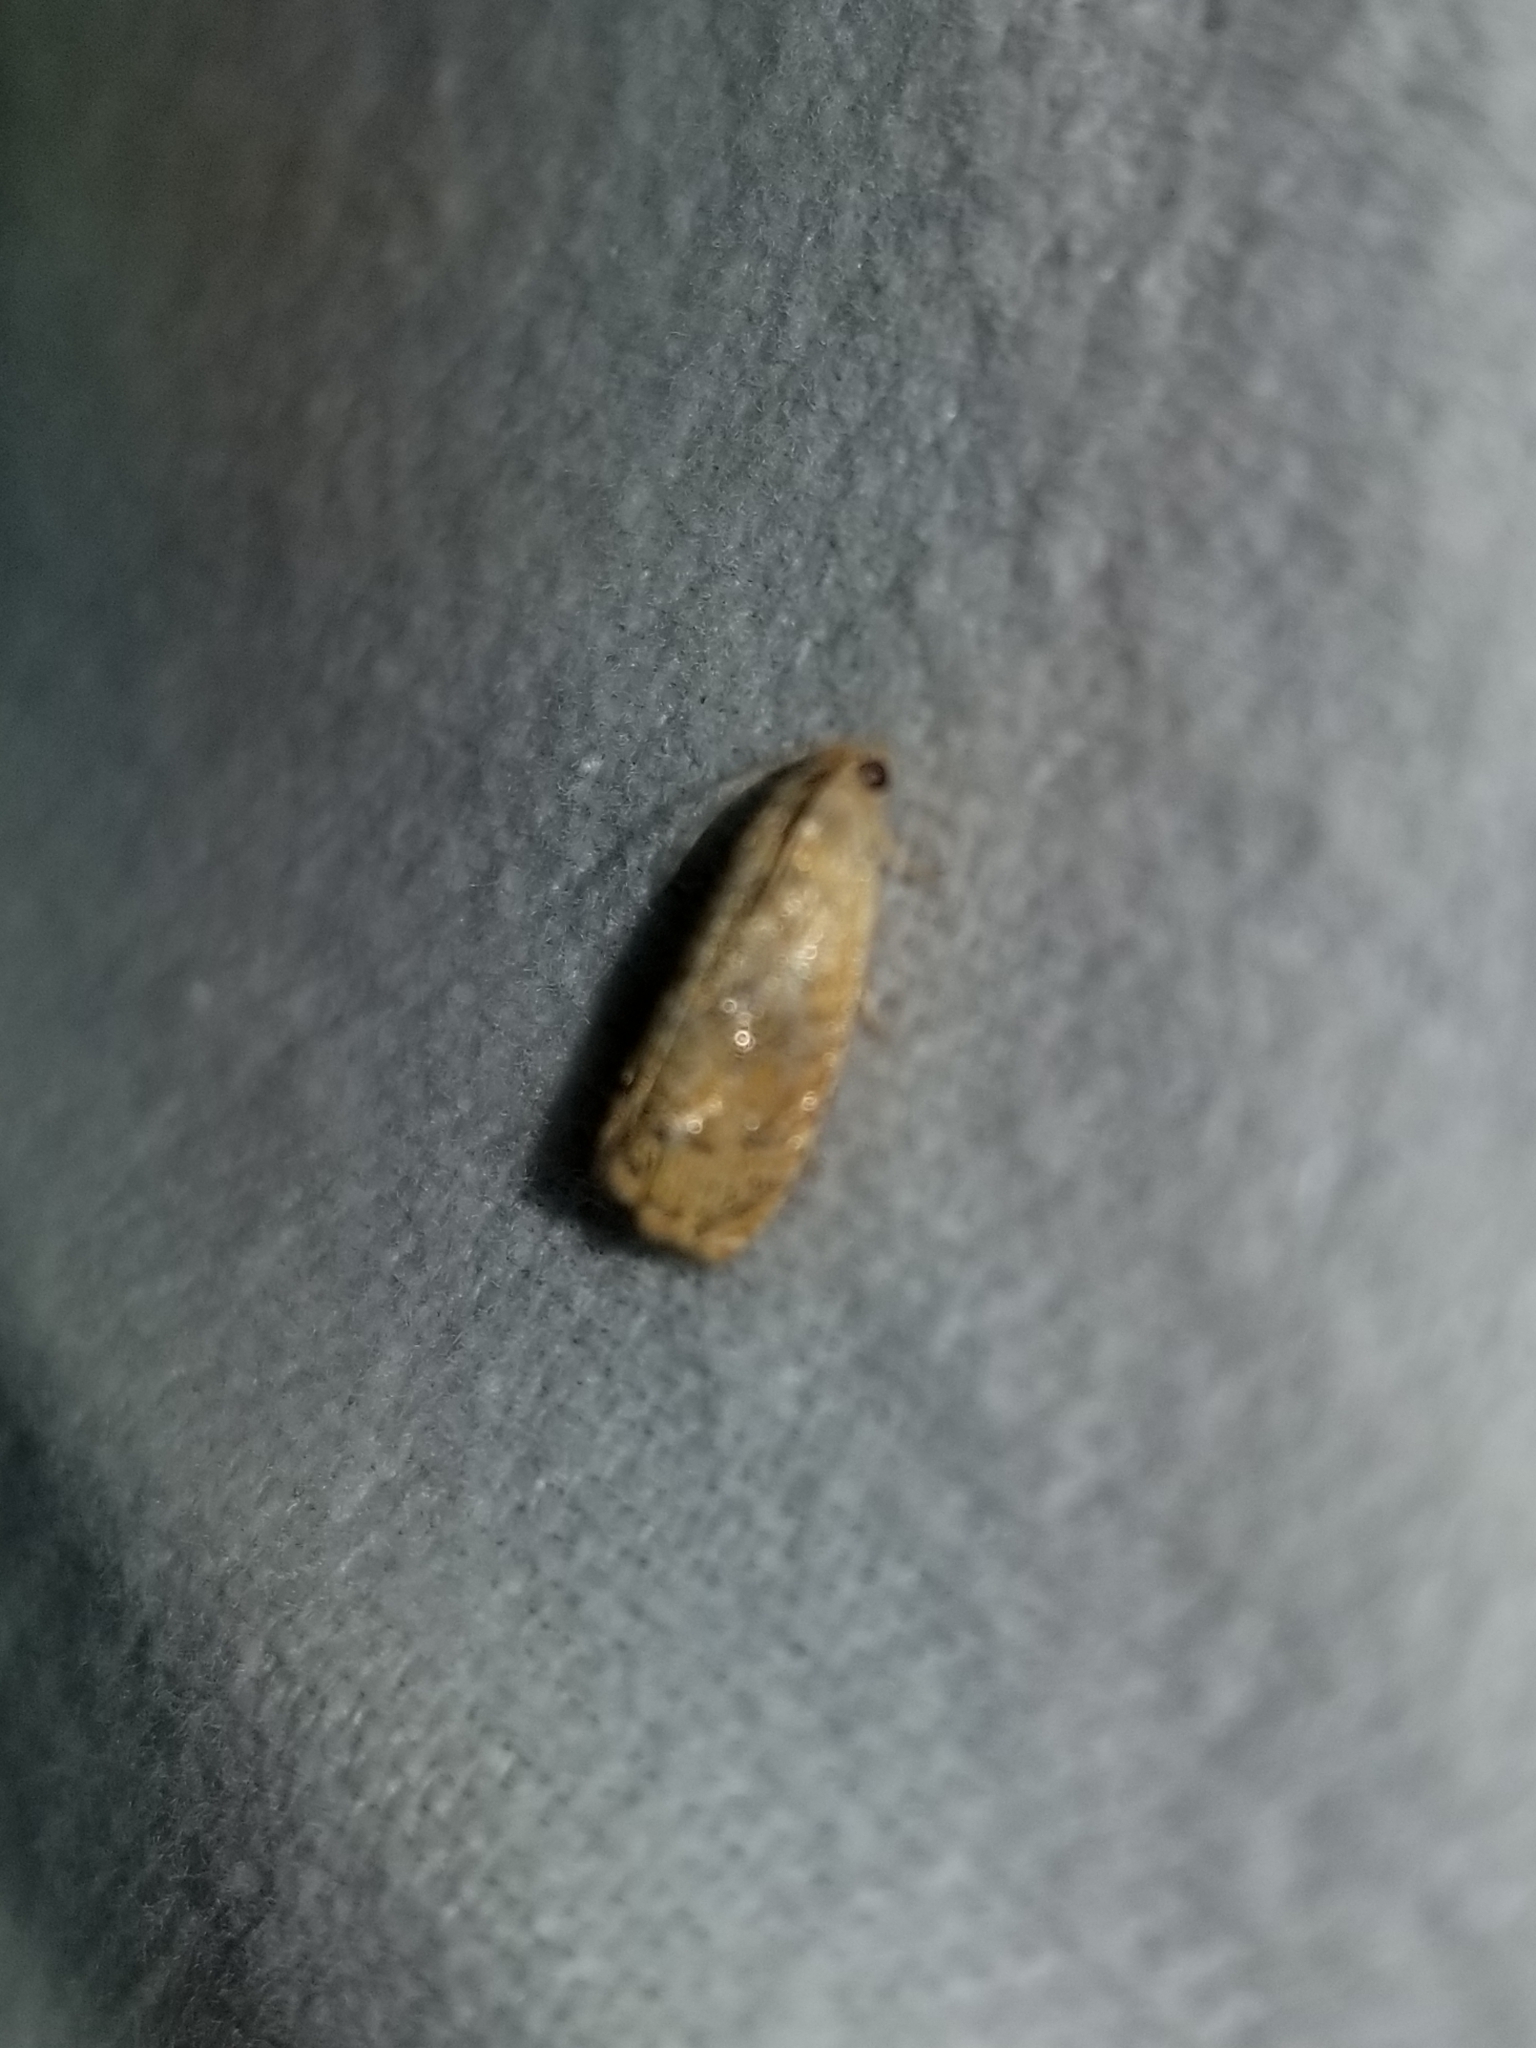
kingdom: Animalia
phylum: Arthropoda
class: Insecta
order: Lepidoptera
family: Tortricidae
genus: Cydia
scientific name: Cydia latiferreana
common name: Filbertworm moth
